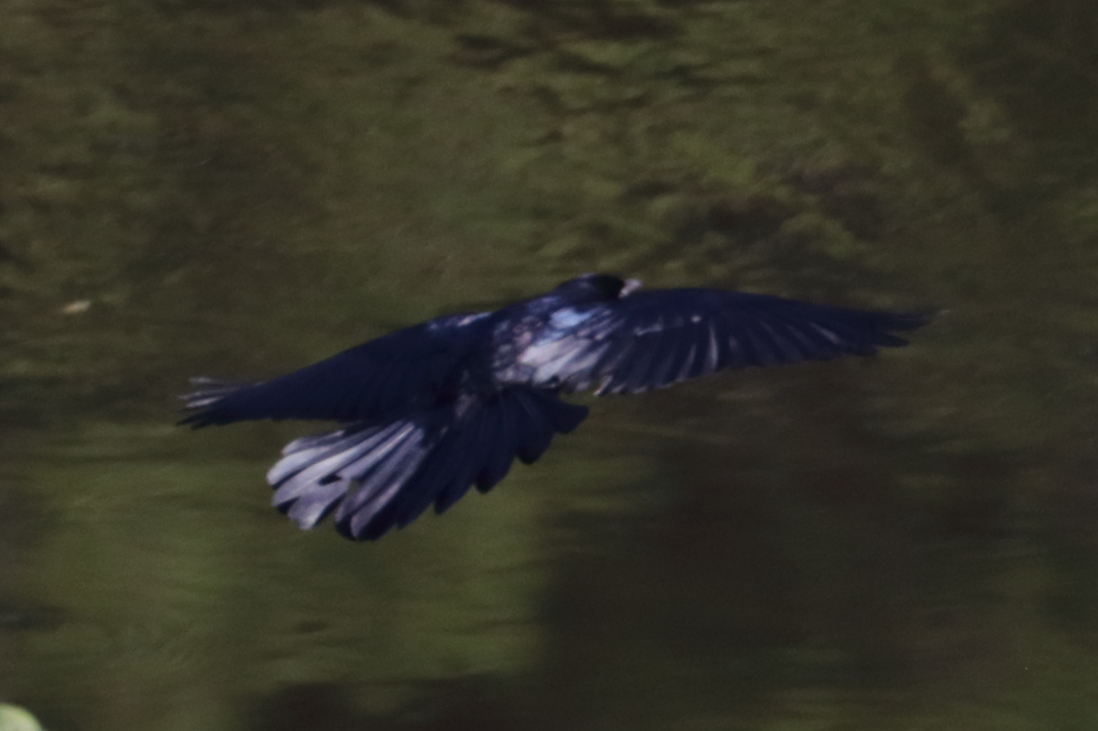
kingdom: Animalia
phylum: Chordata
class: Aves
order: Passeriformes
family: Icteridae
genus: Quiscalus
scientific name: Quiscalus major
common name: Boat-tailed grackle
